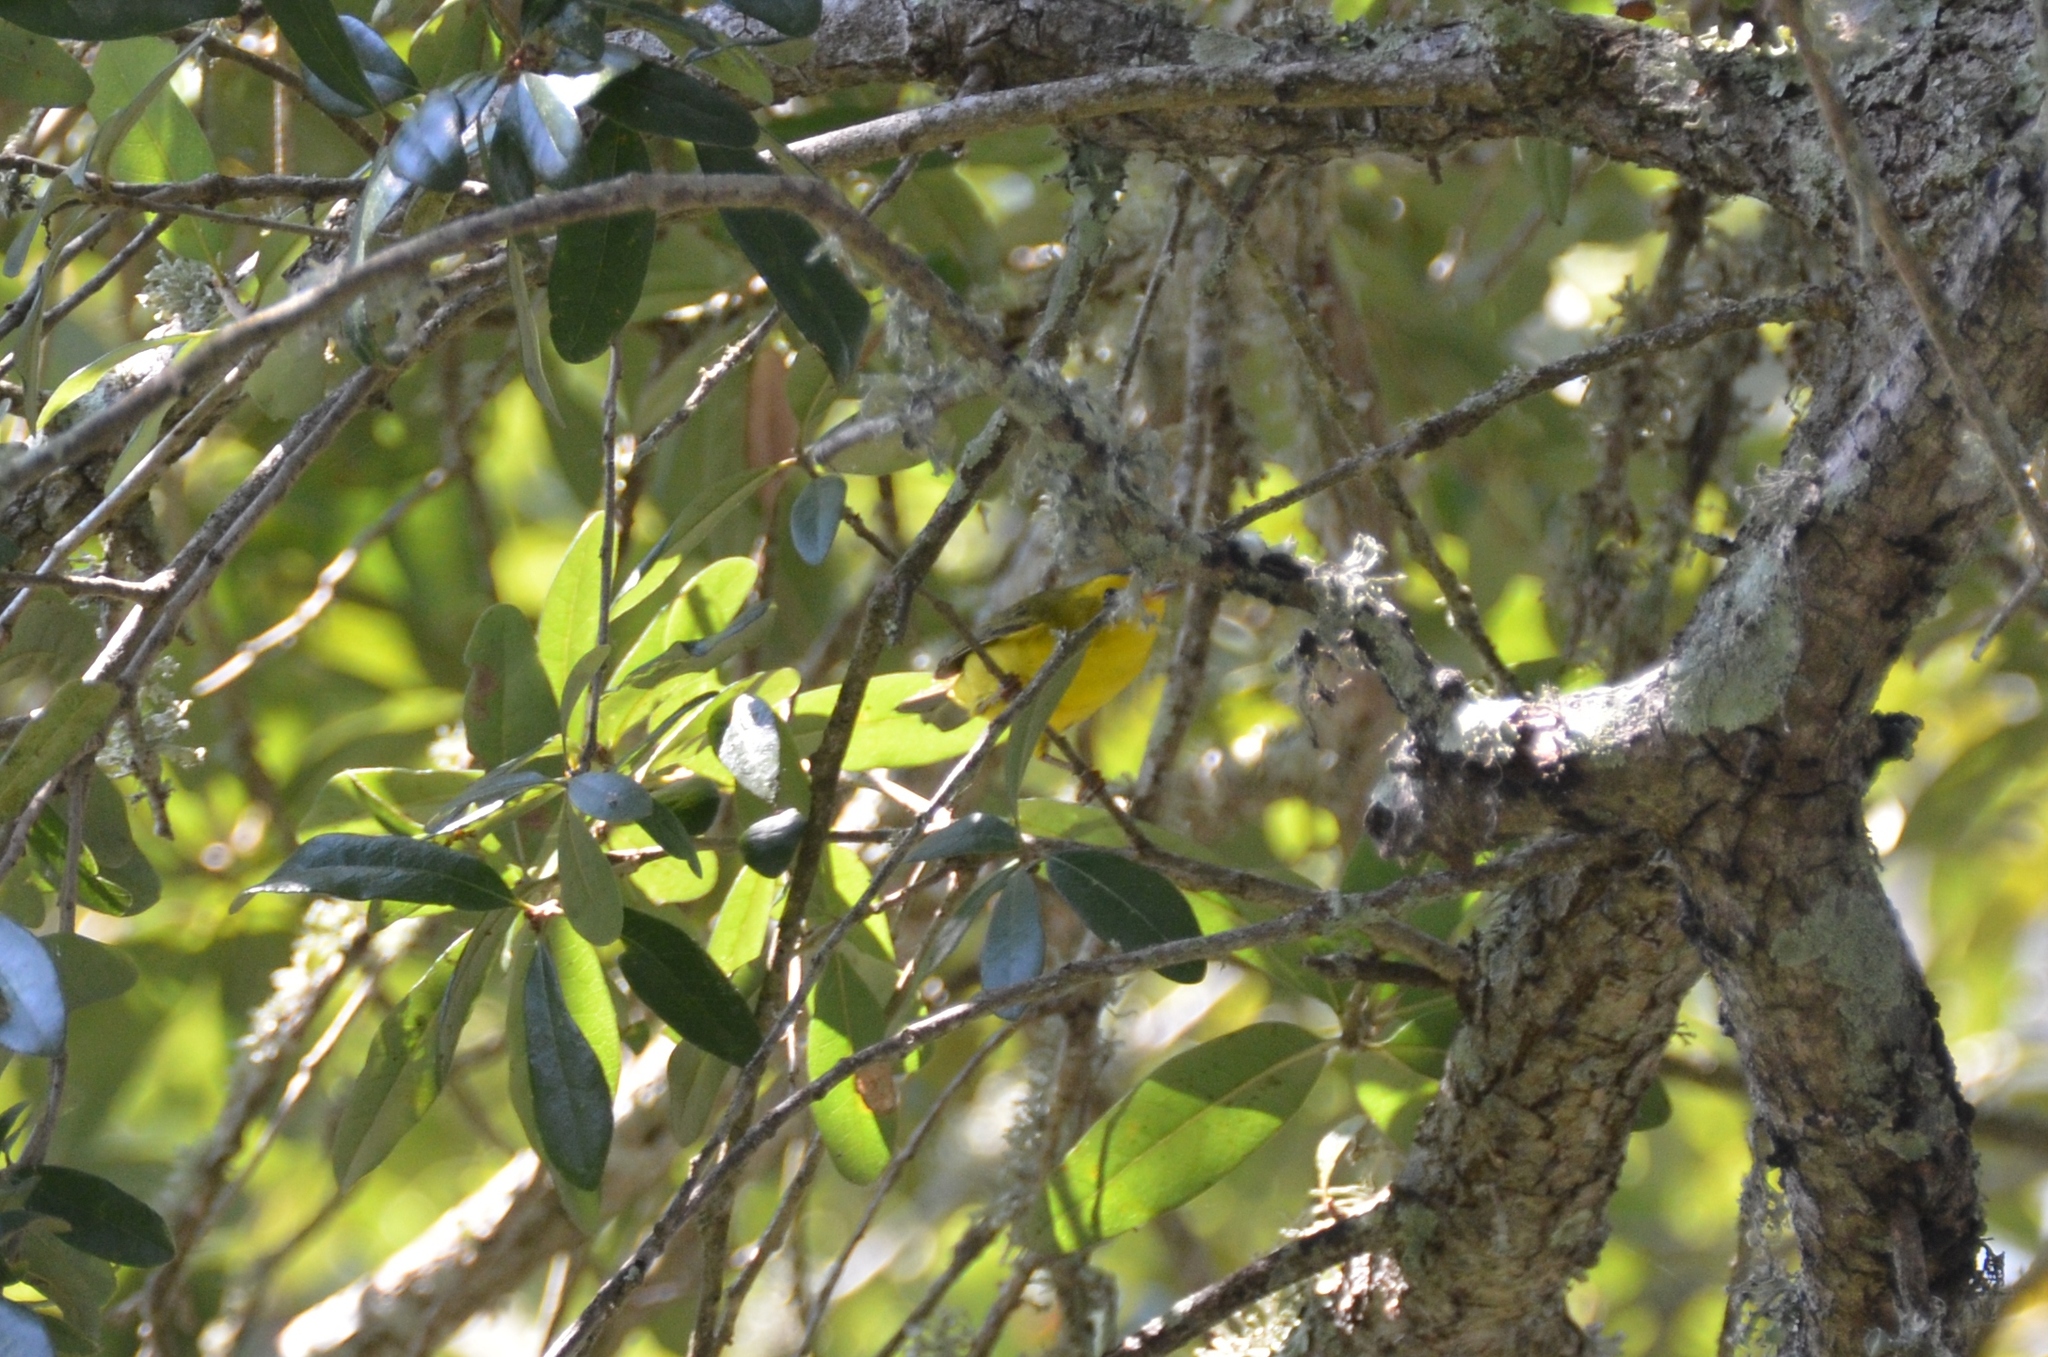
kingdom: Animalia
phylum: Chordata
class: Aves
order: Passeriformes
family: Parulidae
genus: Cardellina
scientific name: Cardellina pusilla
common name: Wilson's warbler
